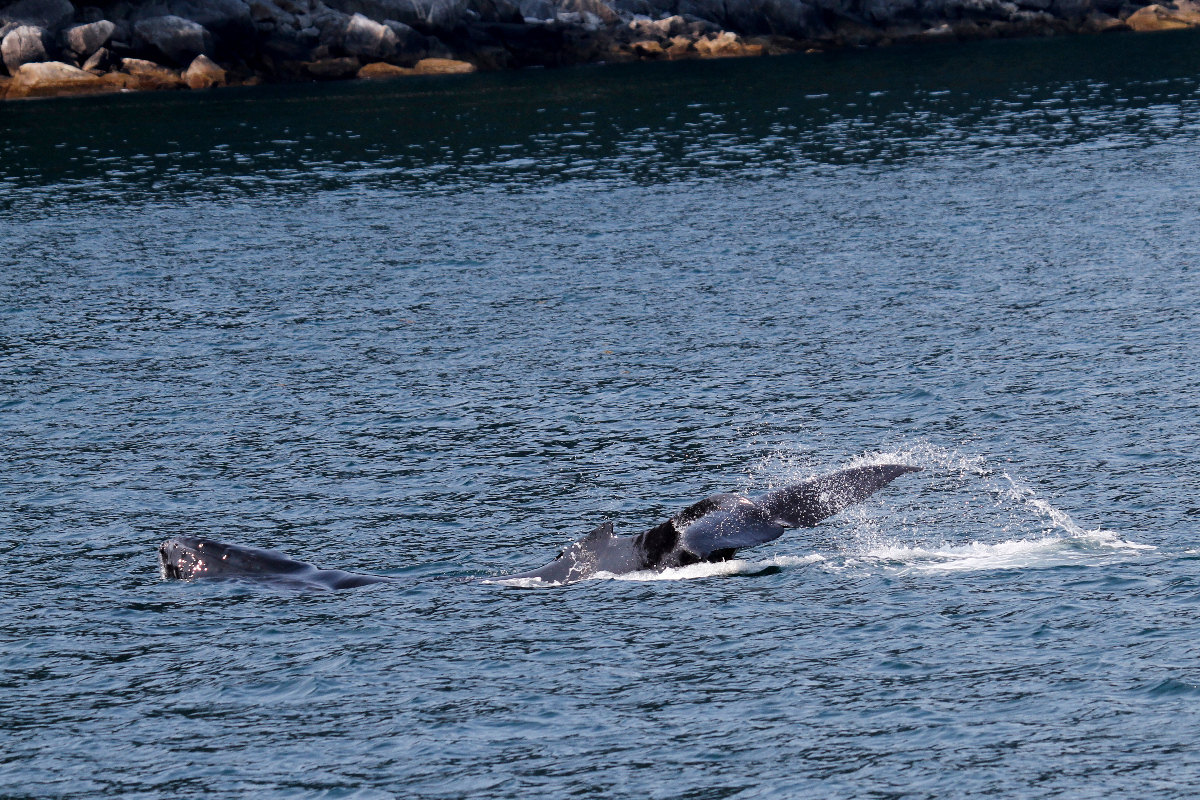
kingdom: Animalia
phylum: Chordata
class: Mammalia
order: Cetacea
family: Balaenopteridae
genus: Megaptera
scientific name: Megaptera novaeangliae
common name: Humpback whale
